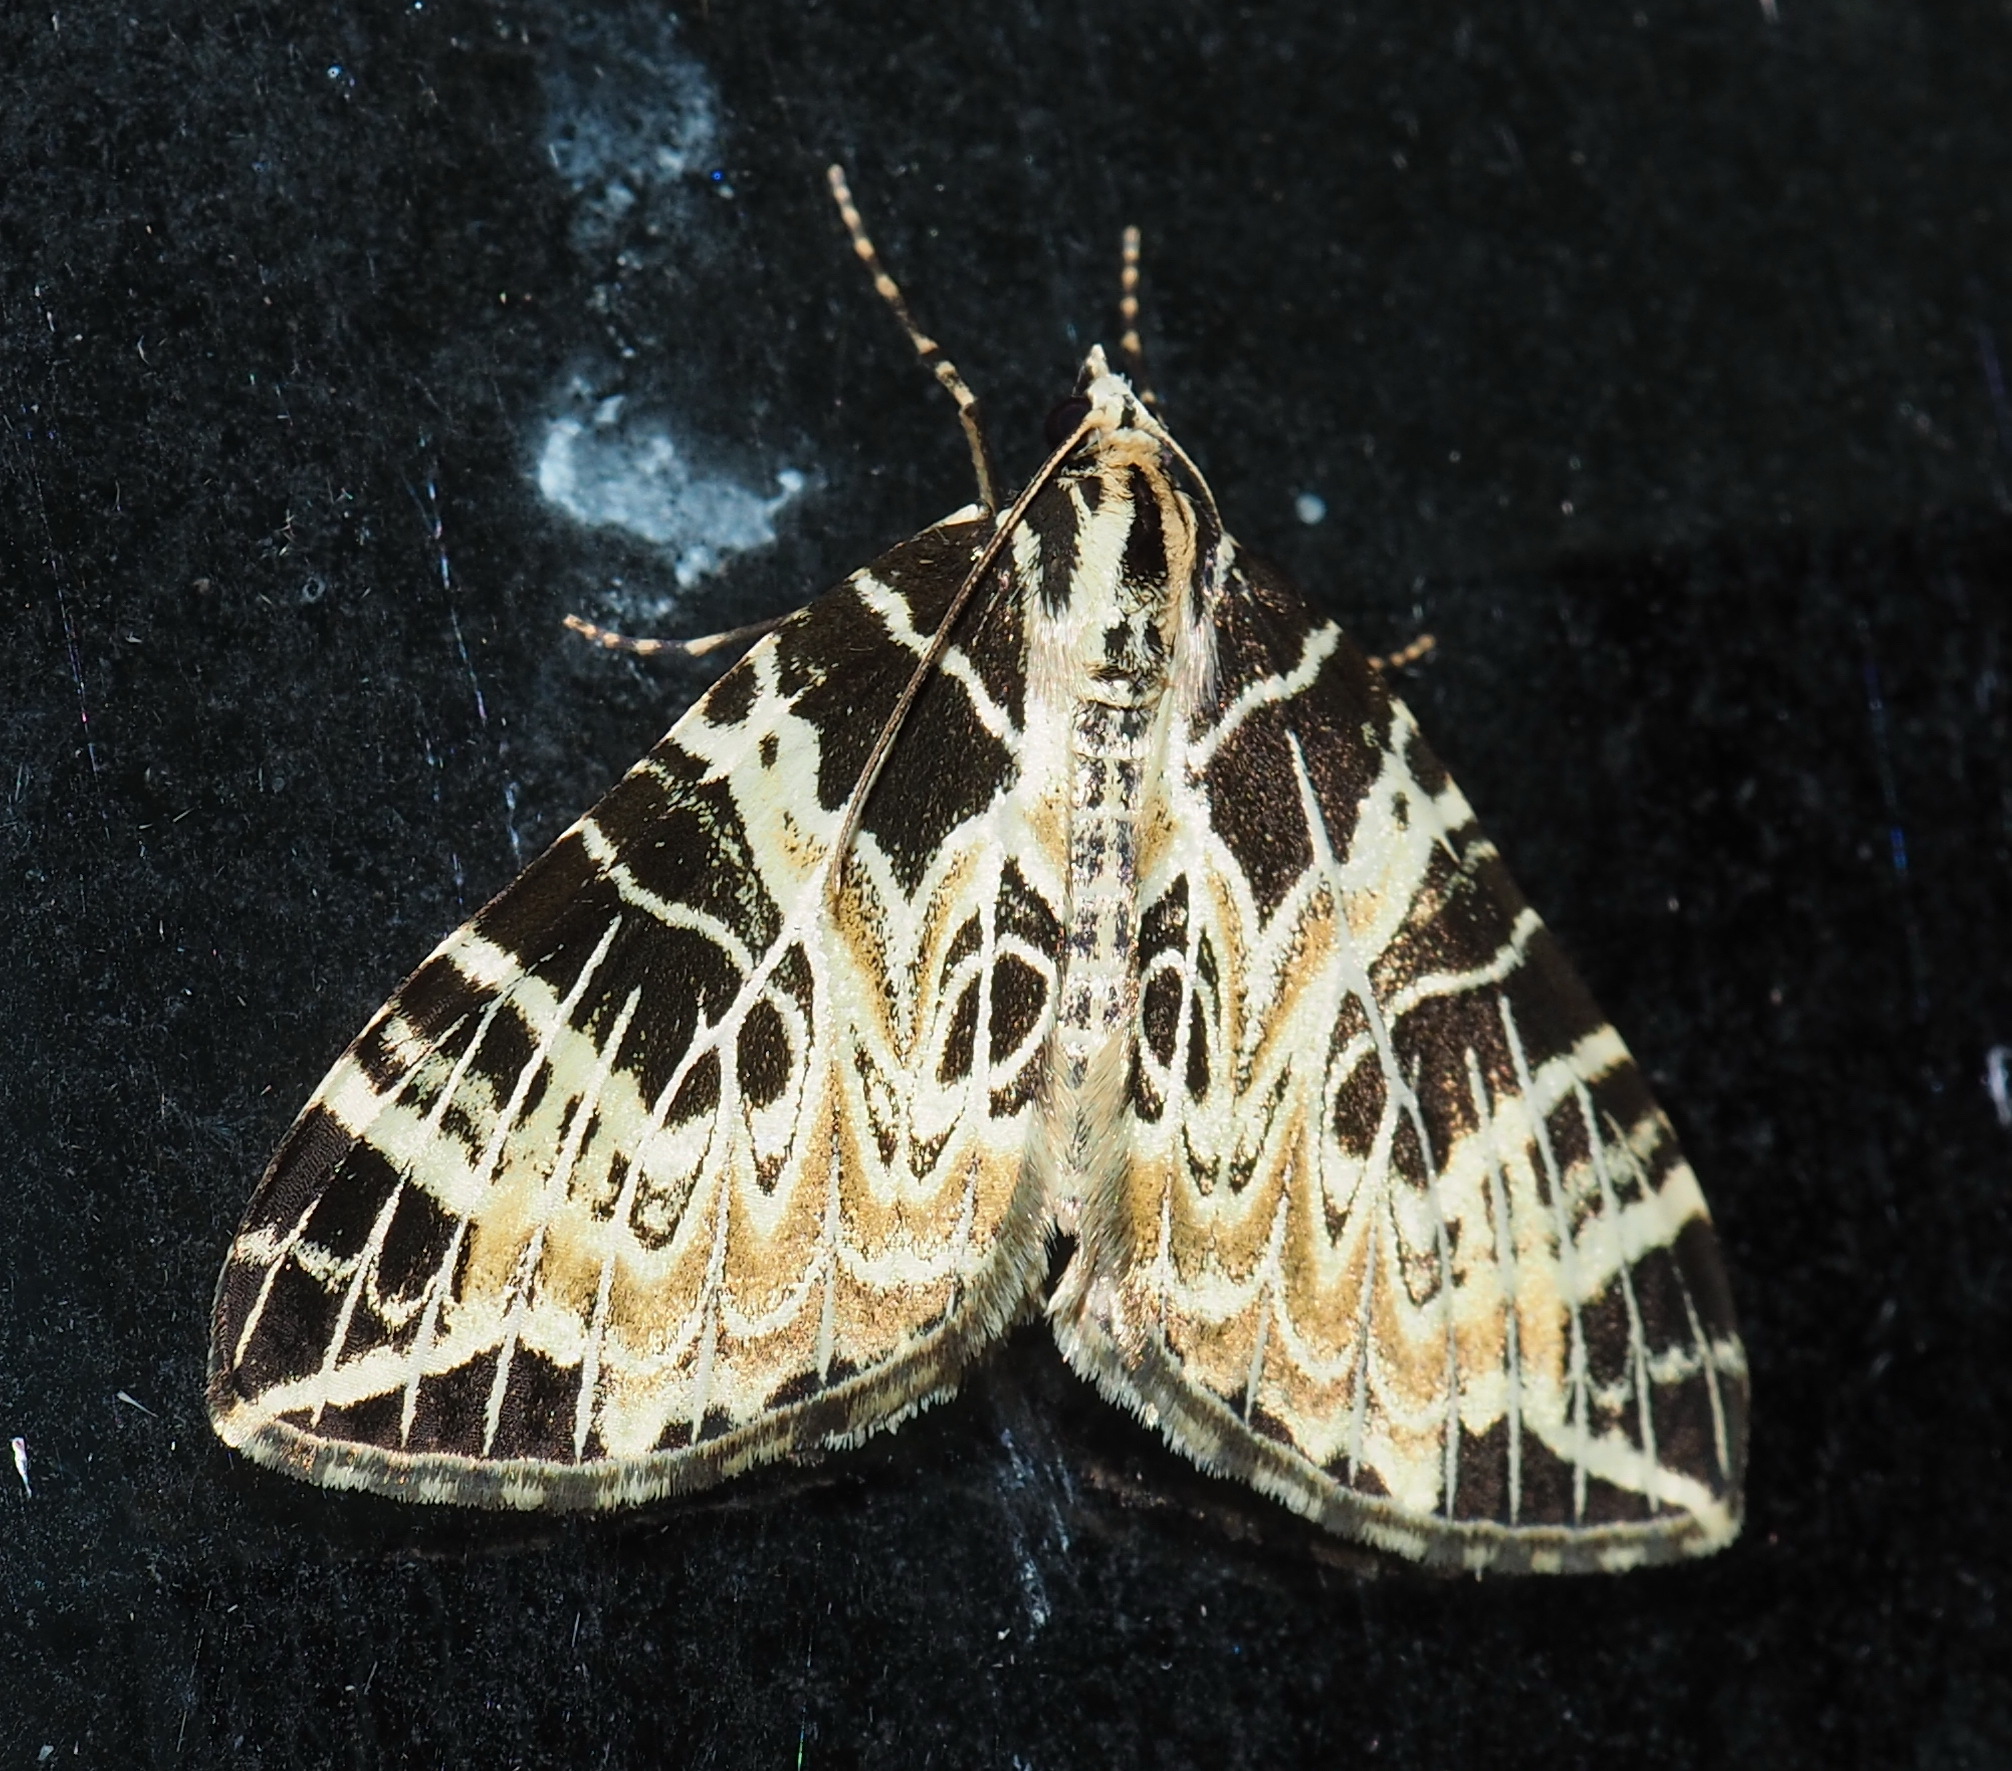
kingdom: Animalia
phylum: Arthropoda
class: Insecta
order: Lepidoptera
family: Geometridae
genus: Eustroma
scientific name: Eustroma changi
